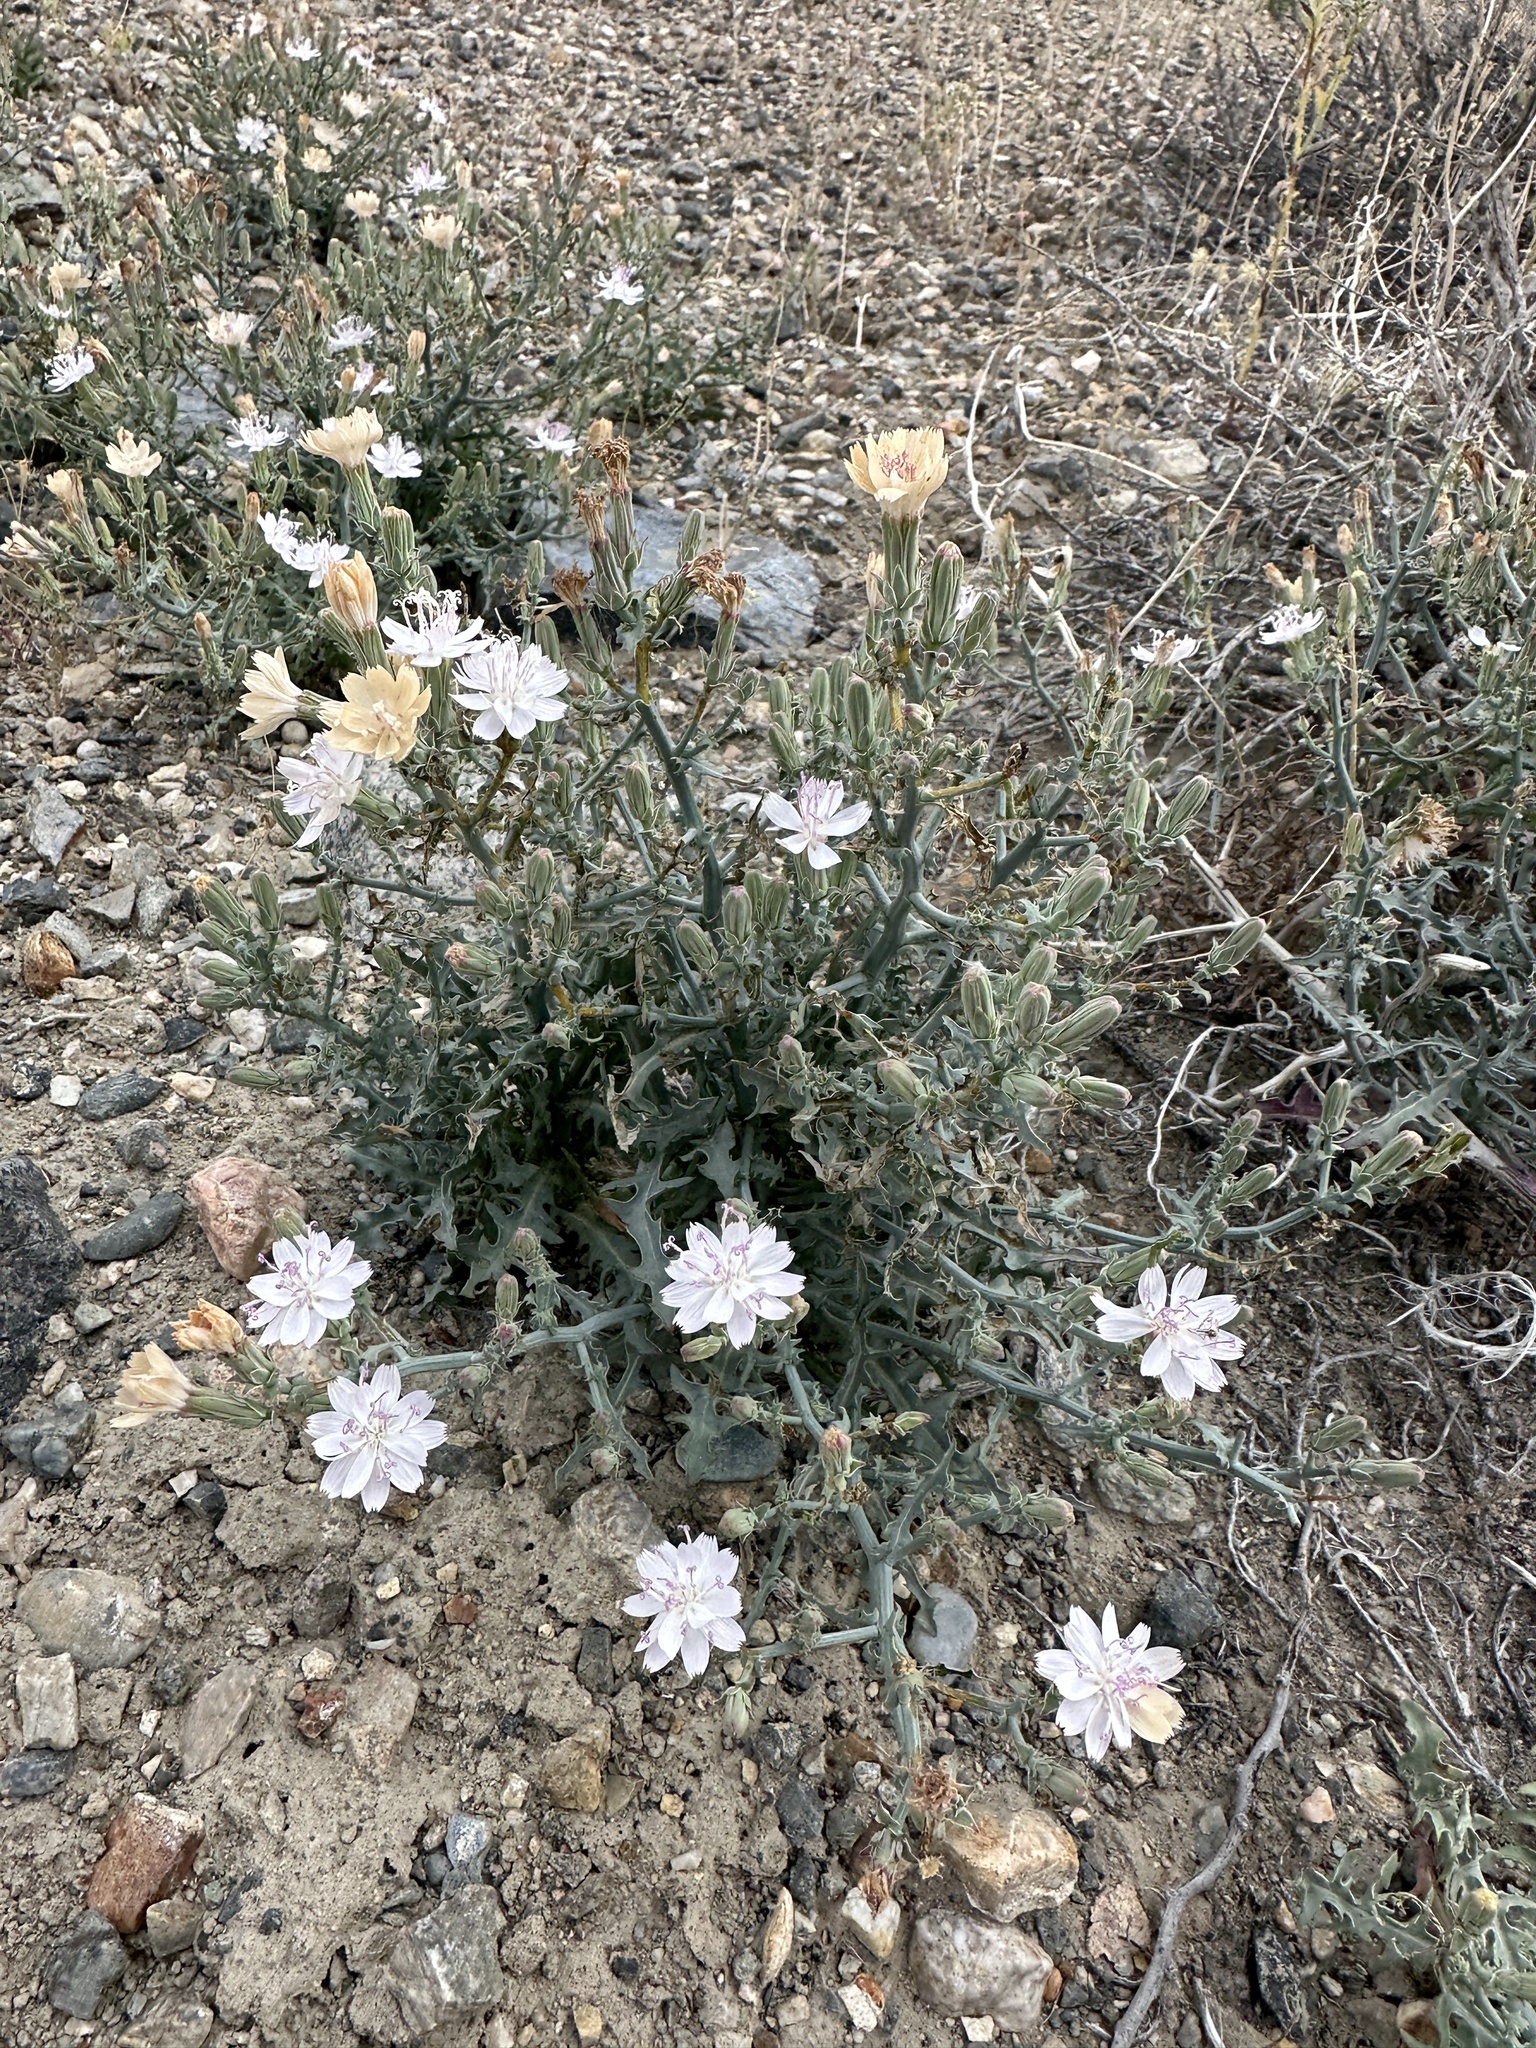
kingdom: Plantae
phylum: Tracheophyta
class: Magnoliopsida
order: Asterales
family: Asteraceae
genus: Stephanomeria
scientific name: Stephanomeria parryi
